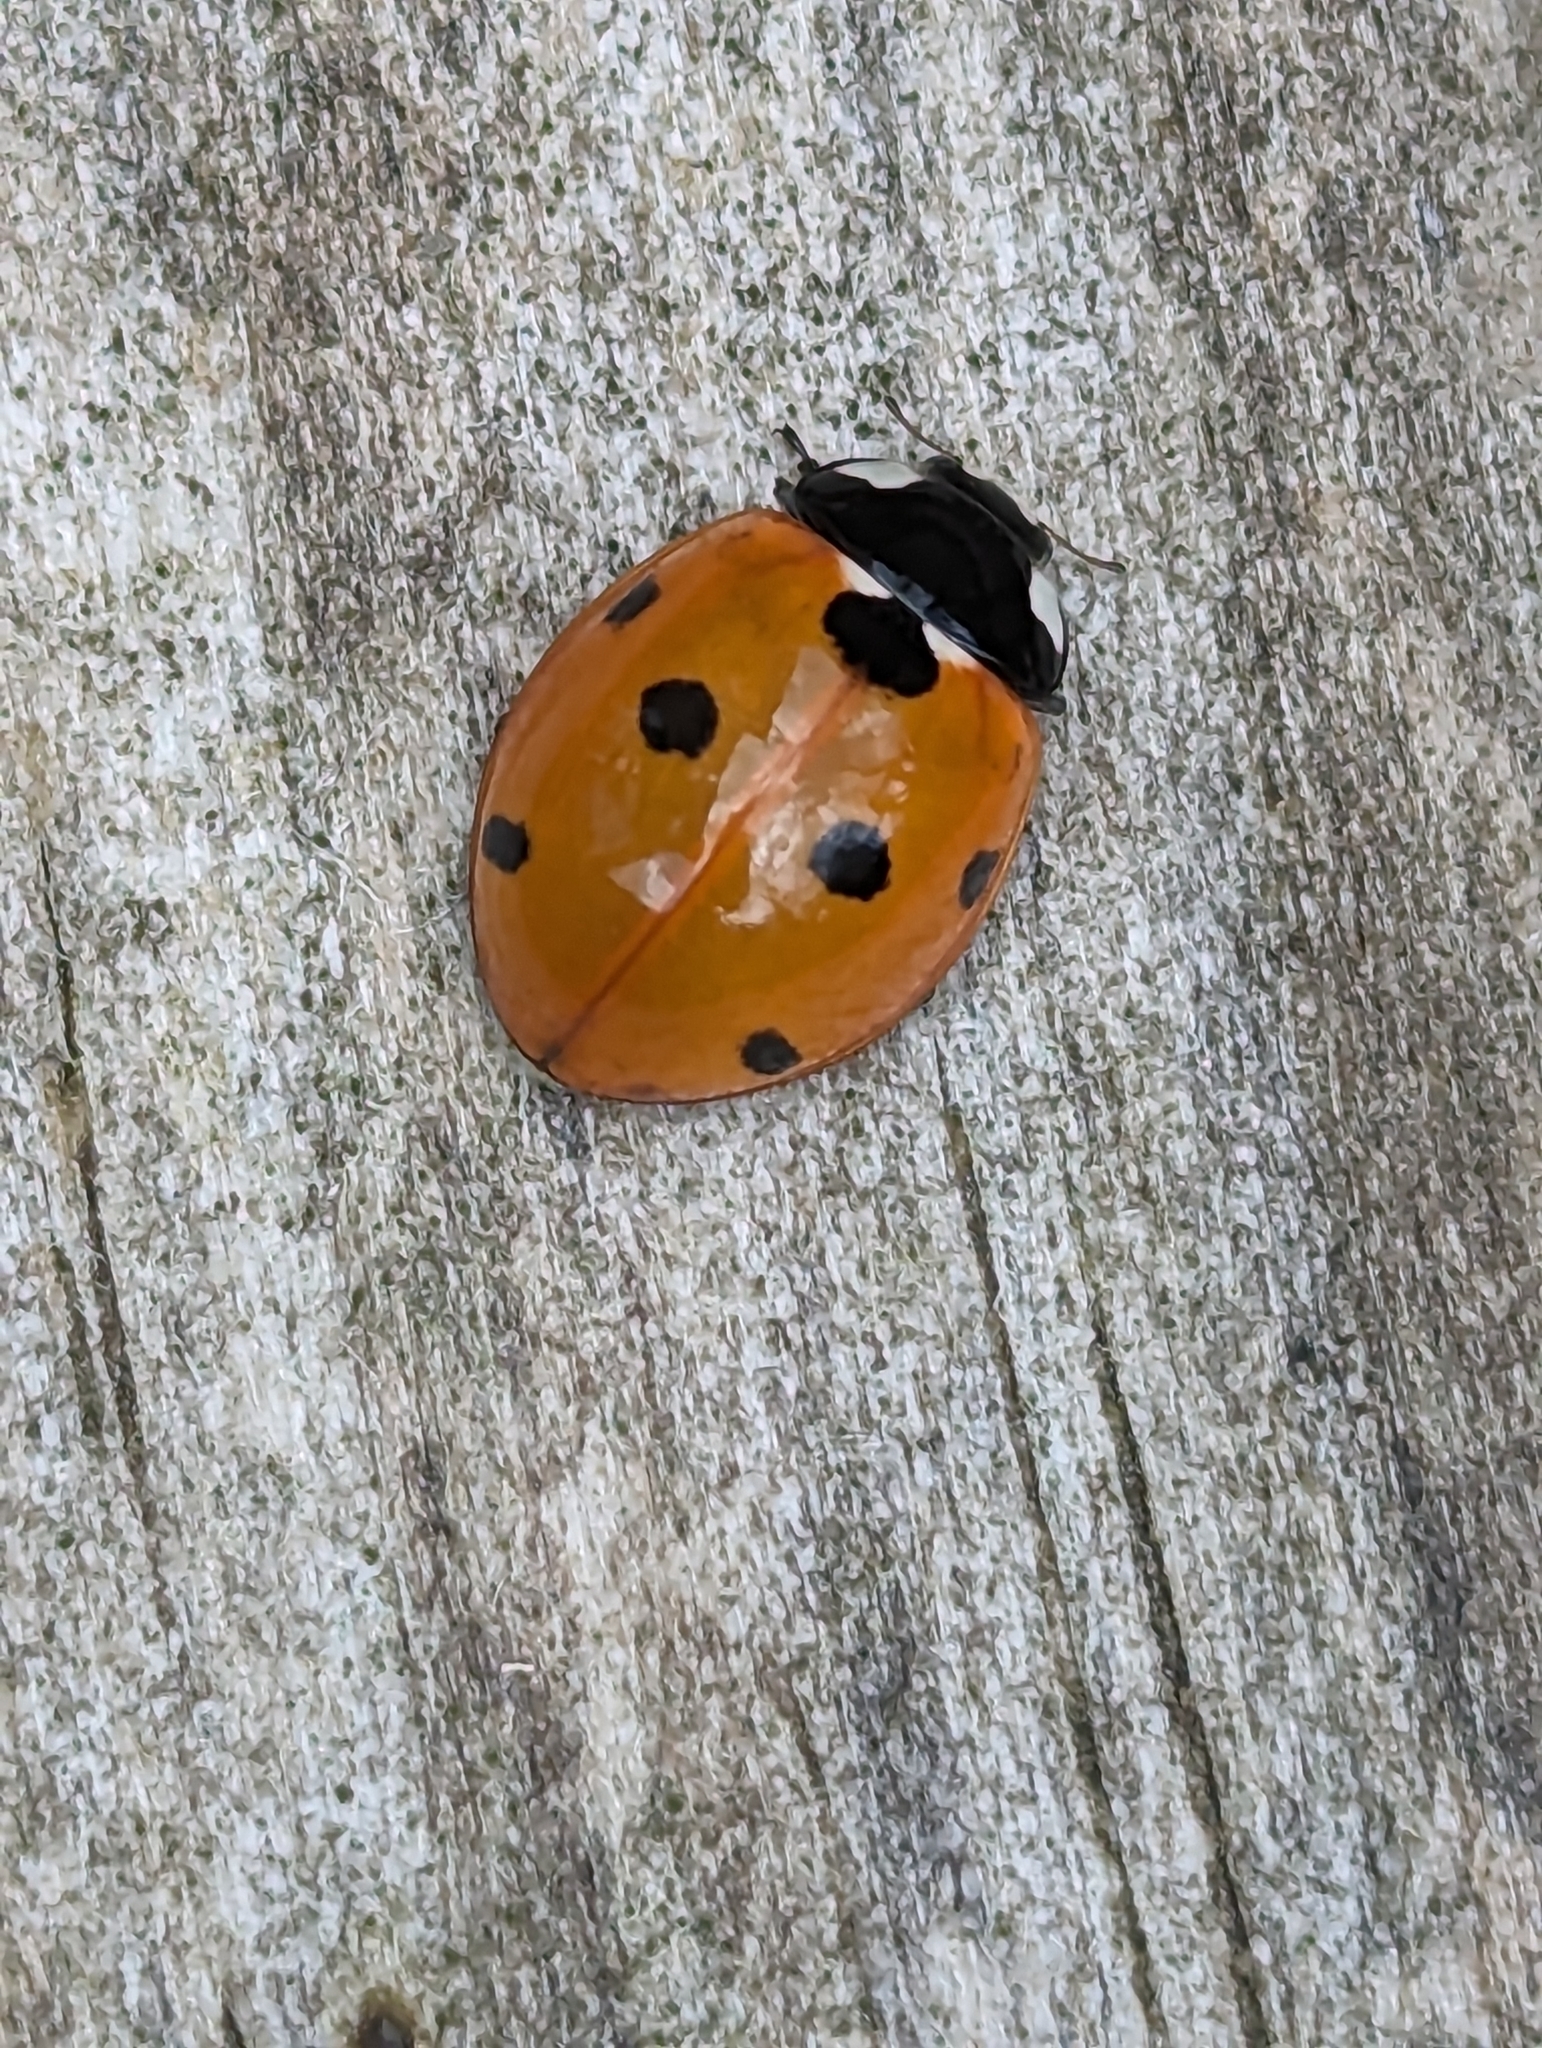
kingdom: Animalia
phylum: Arthropoda
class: Insecta
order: Coleoptera
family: Coccinellidae
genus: Coccinella
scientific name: Coccinella septempunctata
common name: Sevenspotted lady beetle
